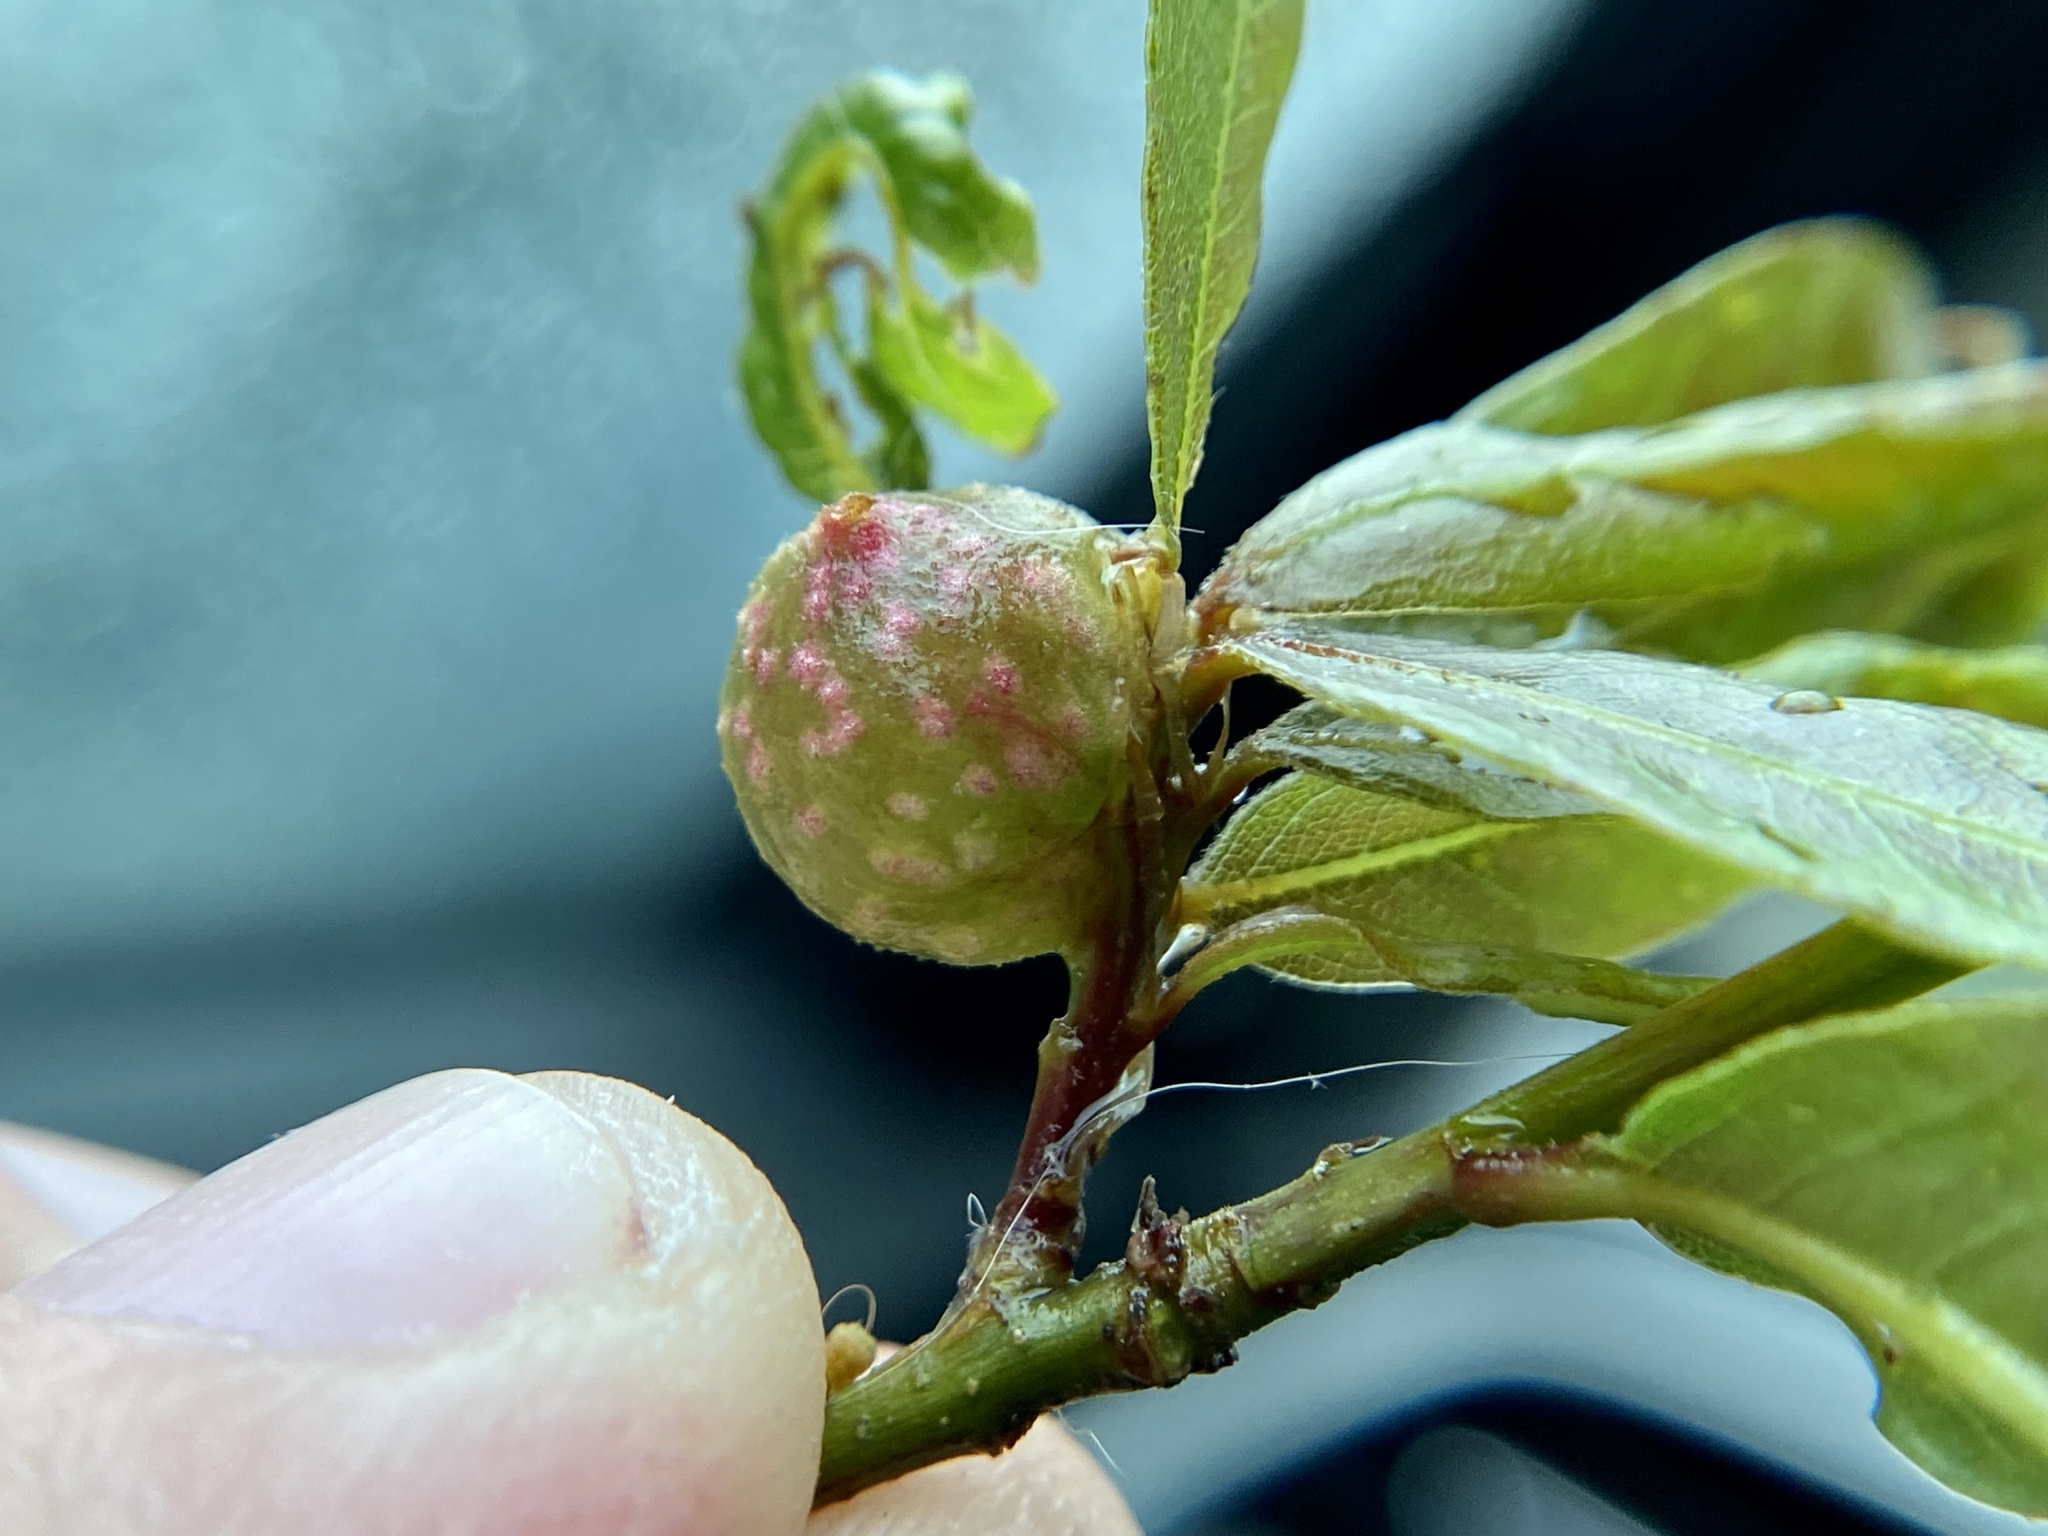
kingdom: Animalia
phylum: Arthropoda
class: Insecta
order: Hymenoptera
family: Cynipidae
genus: Dryocosmus
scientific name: Dryocosmus
